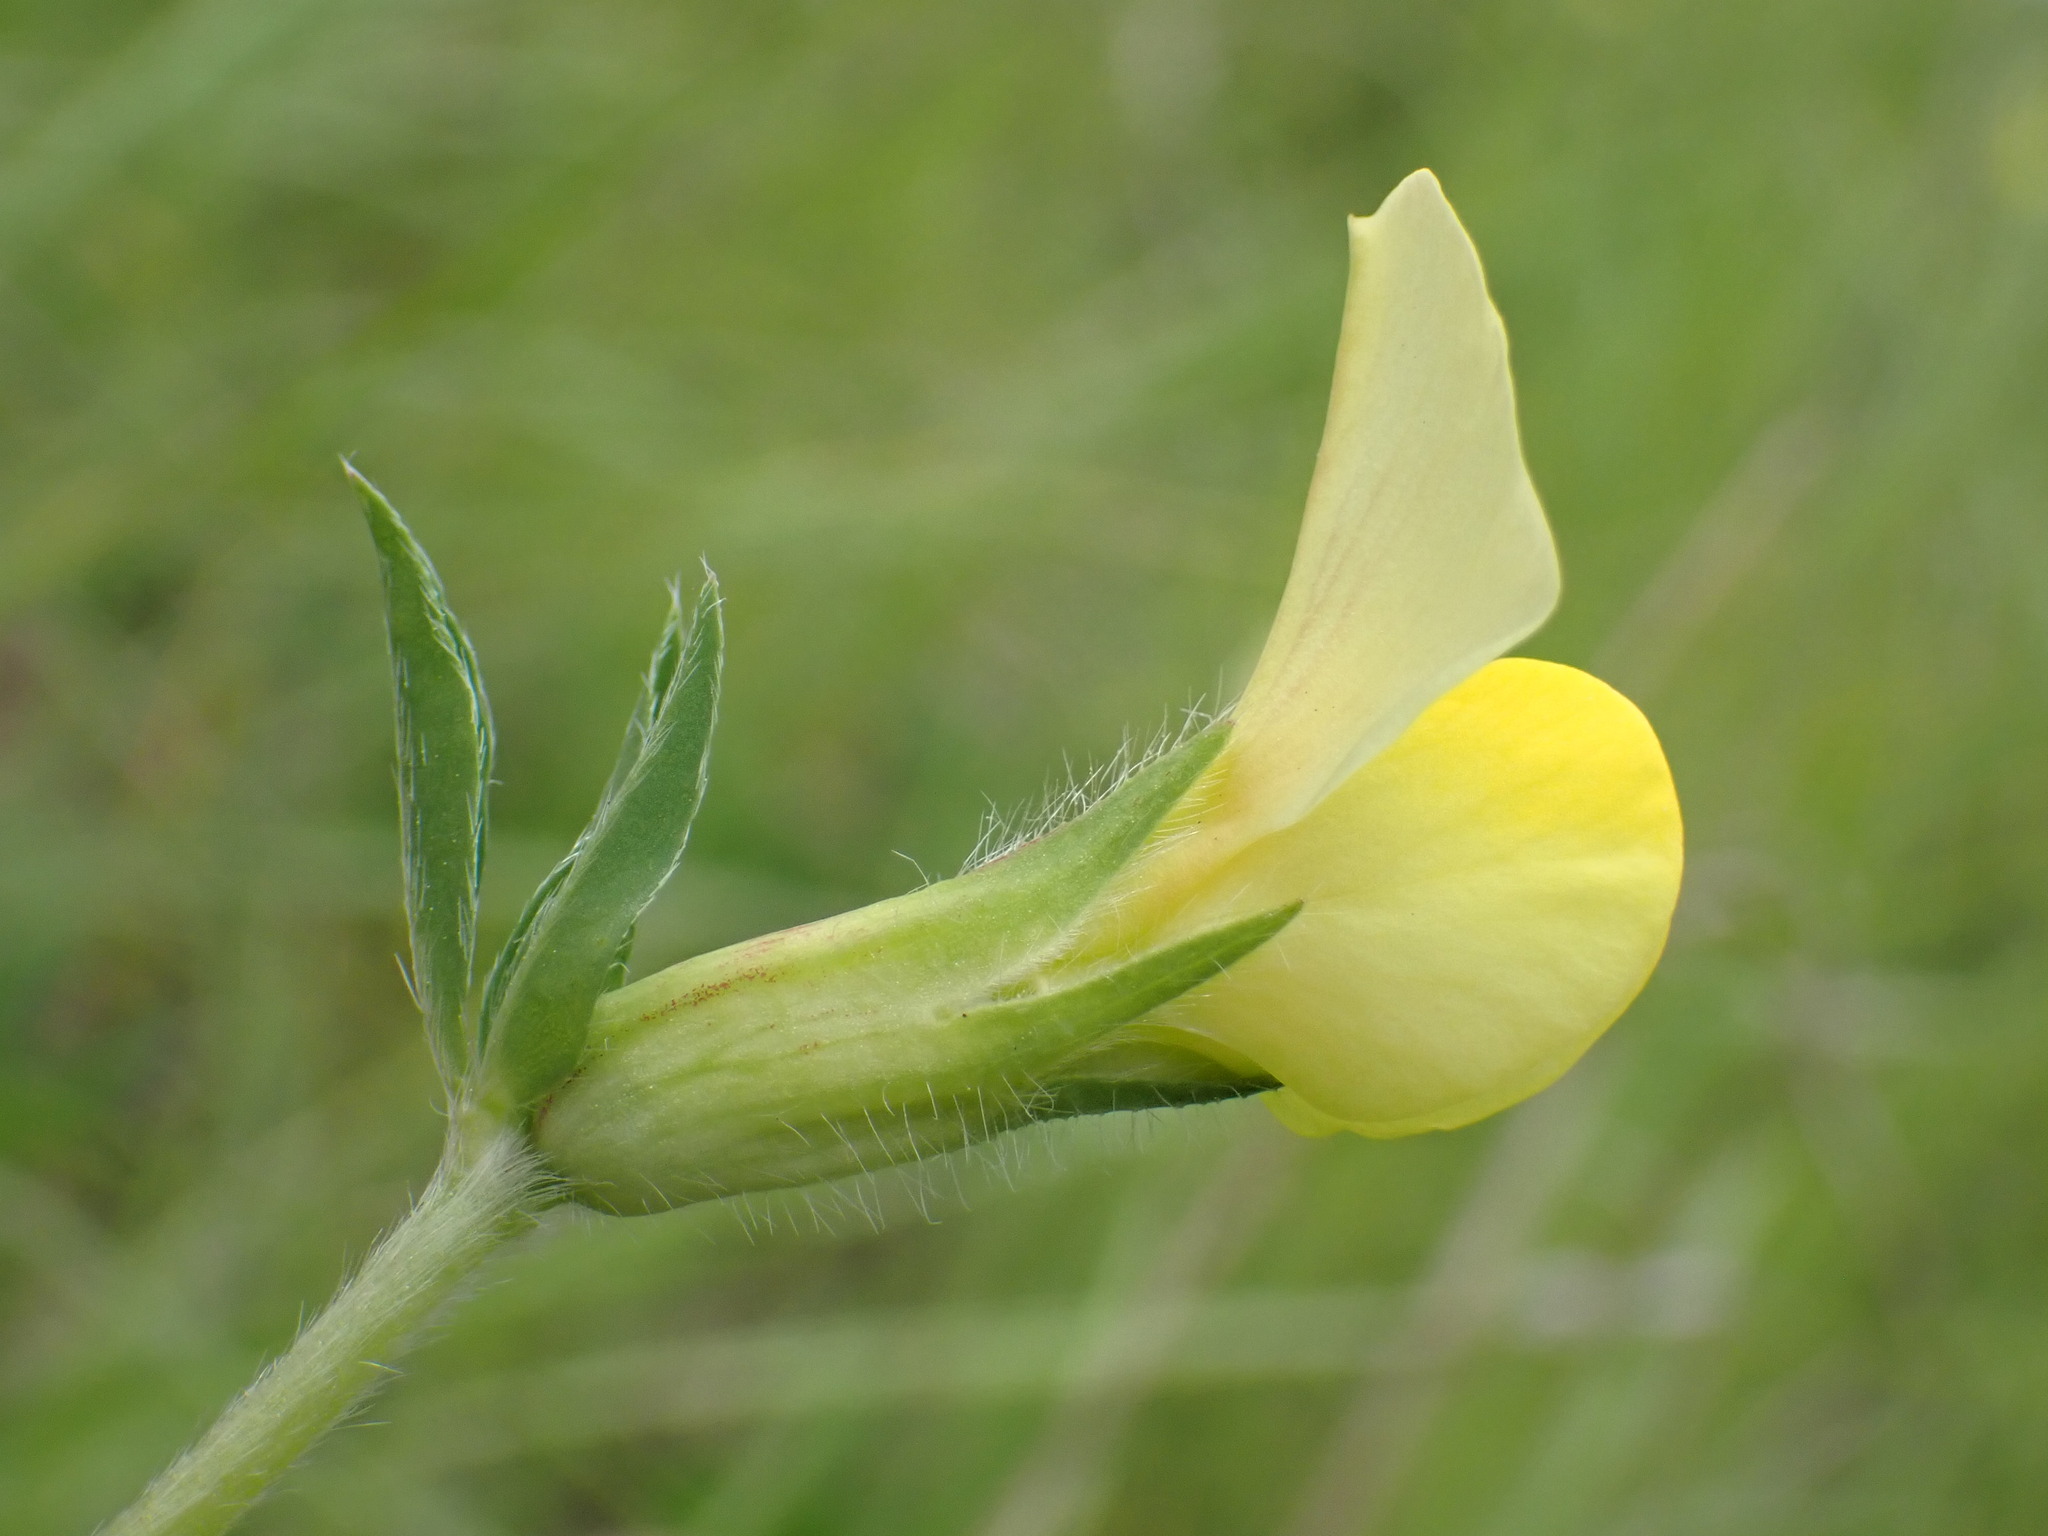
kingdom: Plantae
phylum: Tracheophyta
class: Magnoliopsida
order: Fabales
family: Fabaceae
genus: Lotus
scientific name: Lotus maritimus
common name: Dragon's-teeth
